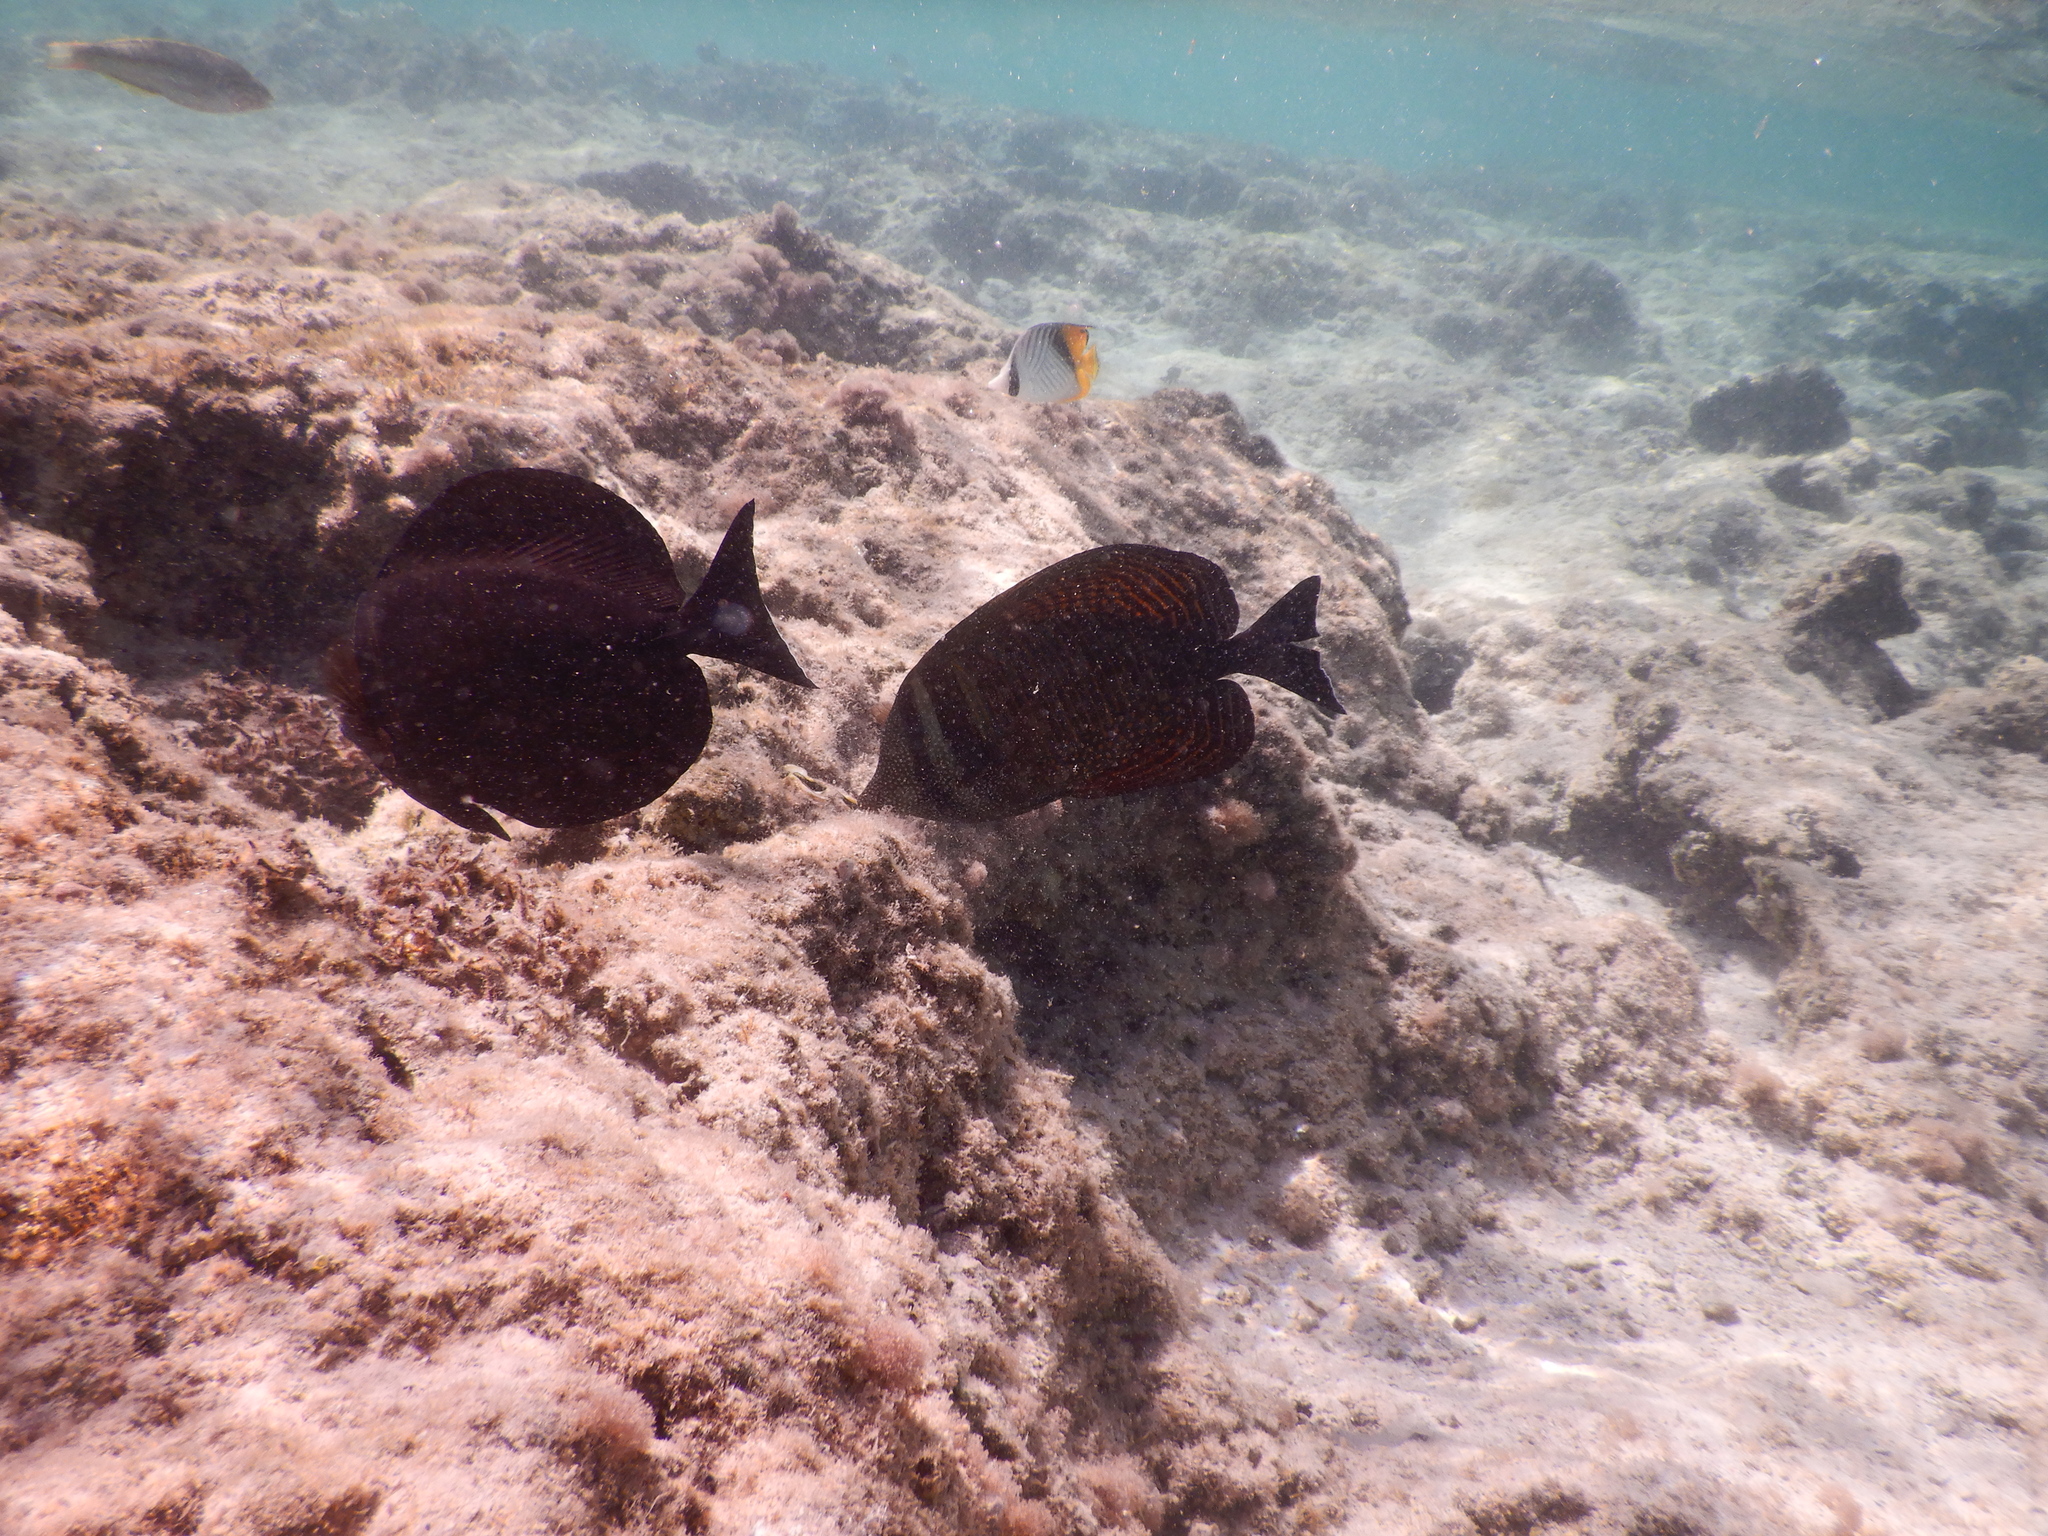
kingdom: Animalia
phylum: Chordata
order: Perciformes
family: Acanthuridae
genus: Zebrasoma
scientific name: Zebrasoma desjardinii
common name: Desjardin's sailfin tang
